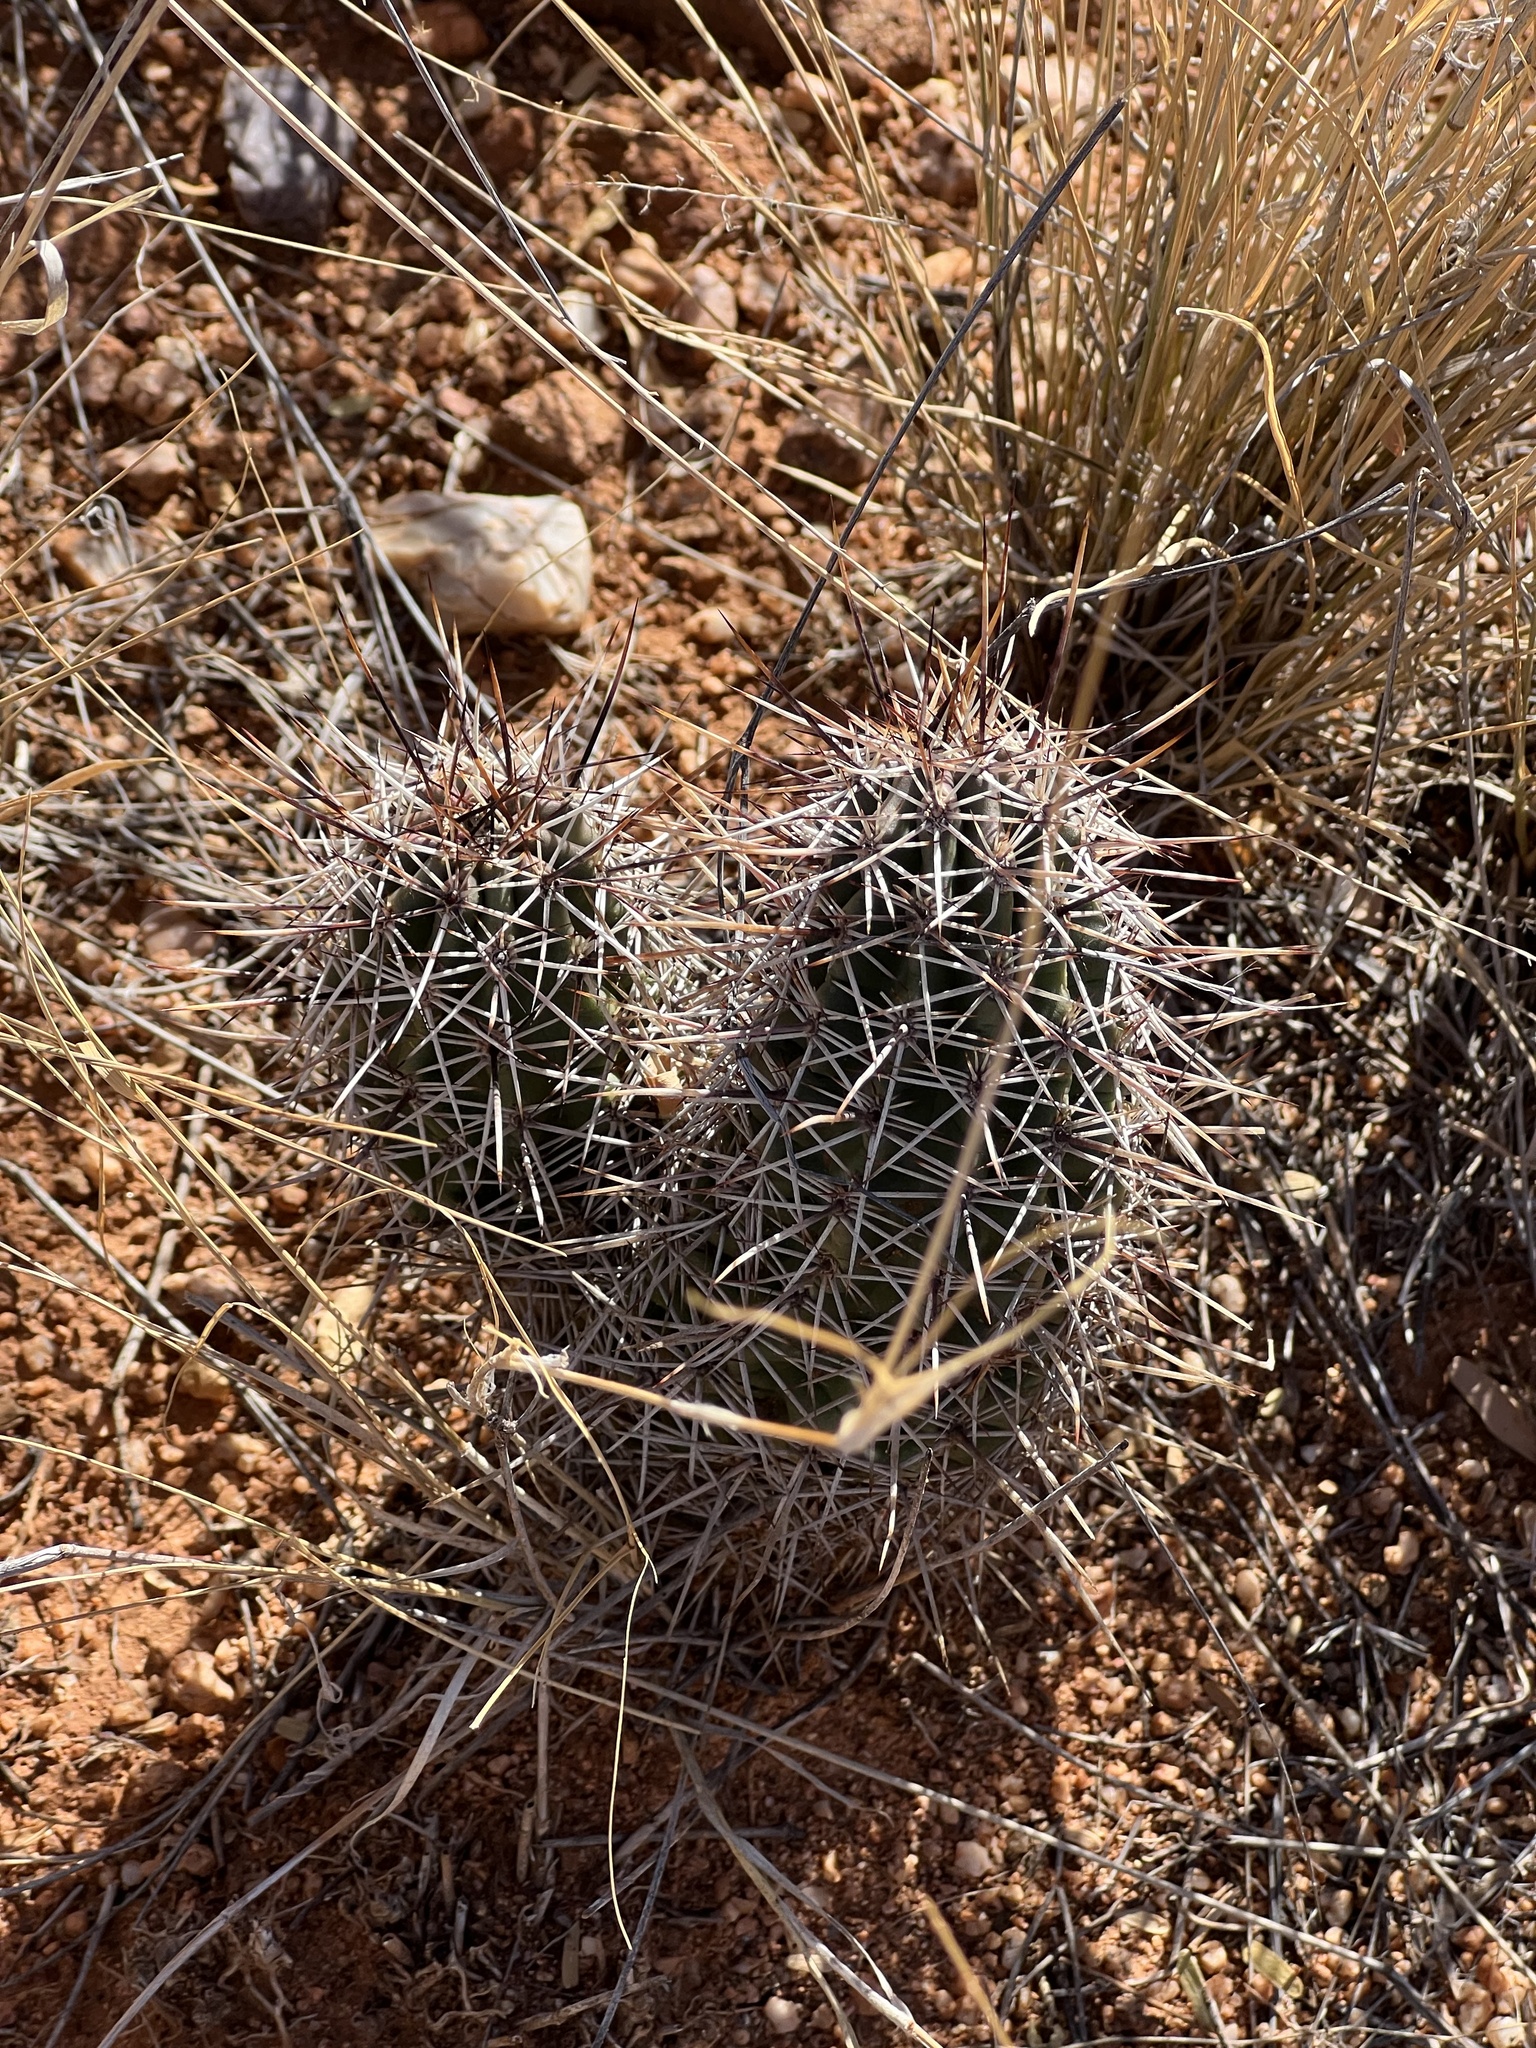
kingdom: Plantae
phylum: Tracheophyta
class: Magnoliopsida
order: Caryophyllales
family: Cactaceae
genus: Echinocereus
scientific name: Echinocereus fendleri
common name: Fendler's hedgehog cactus
